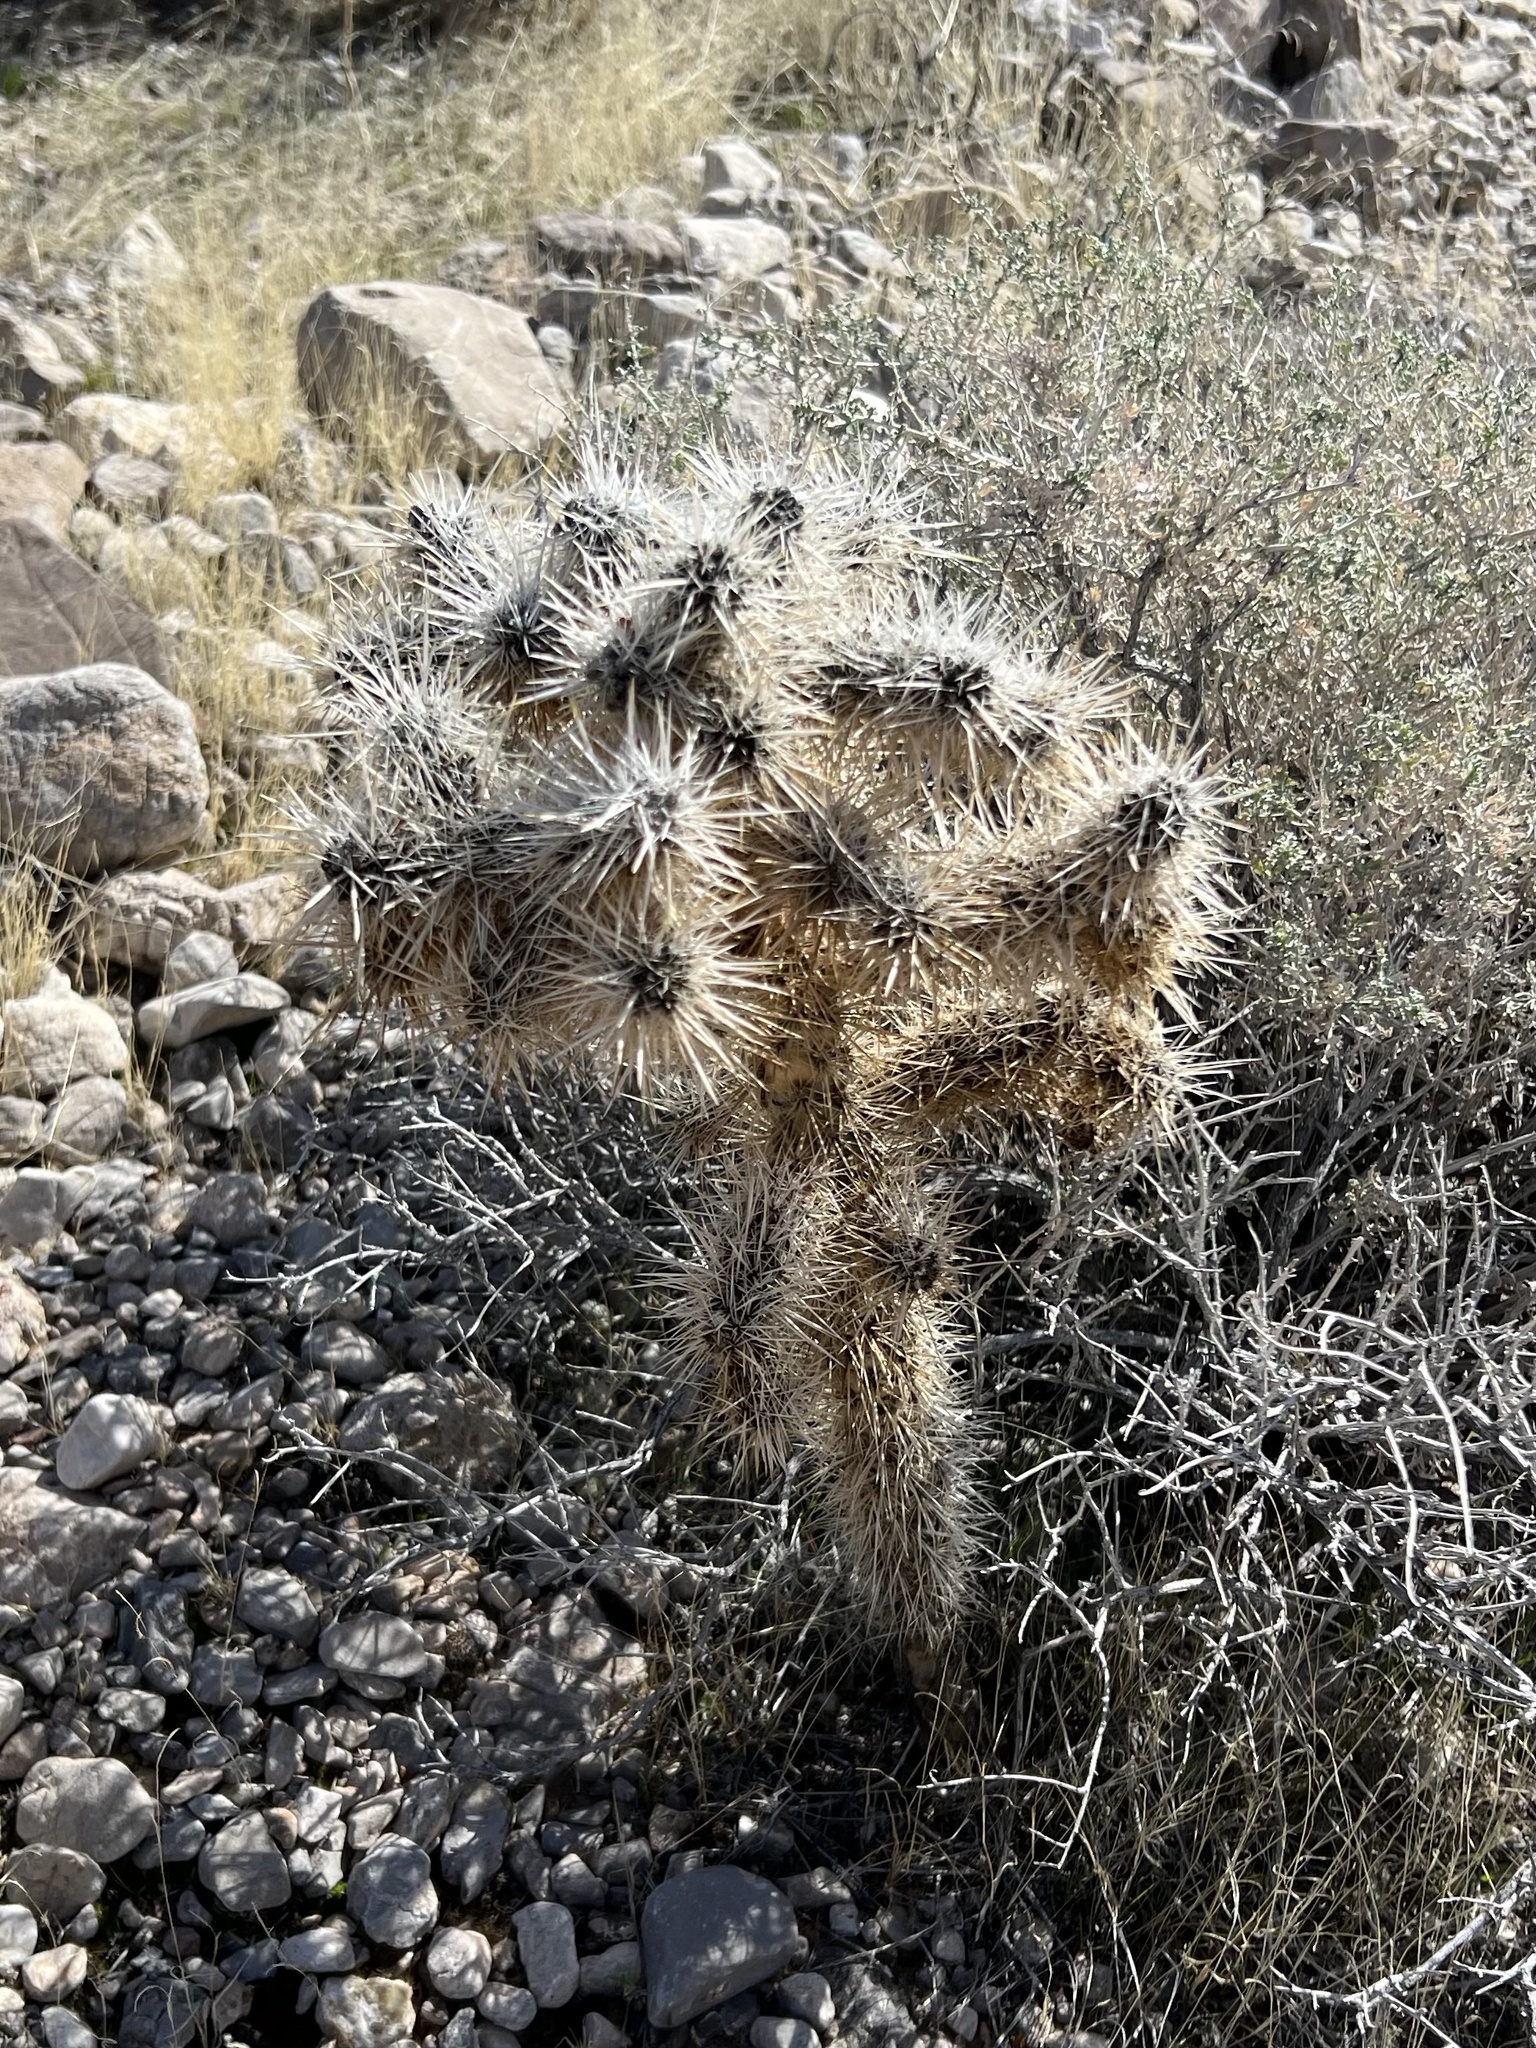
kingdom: Plantae
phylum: Tracheophyta
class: Magnoliopsida
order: Caryophyllales
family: Cactaceae
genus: Cylindropuntia
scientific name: Cylindropuntia echinocarpa
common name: Ground cholla
